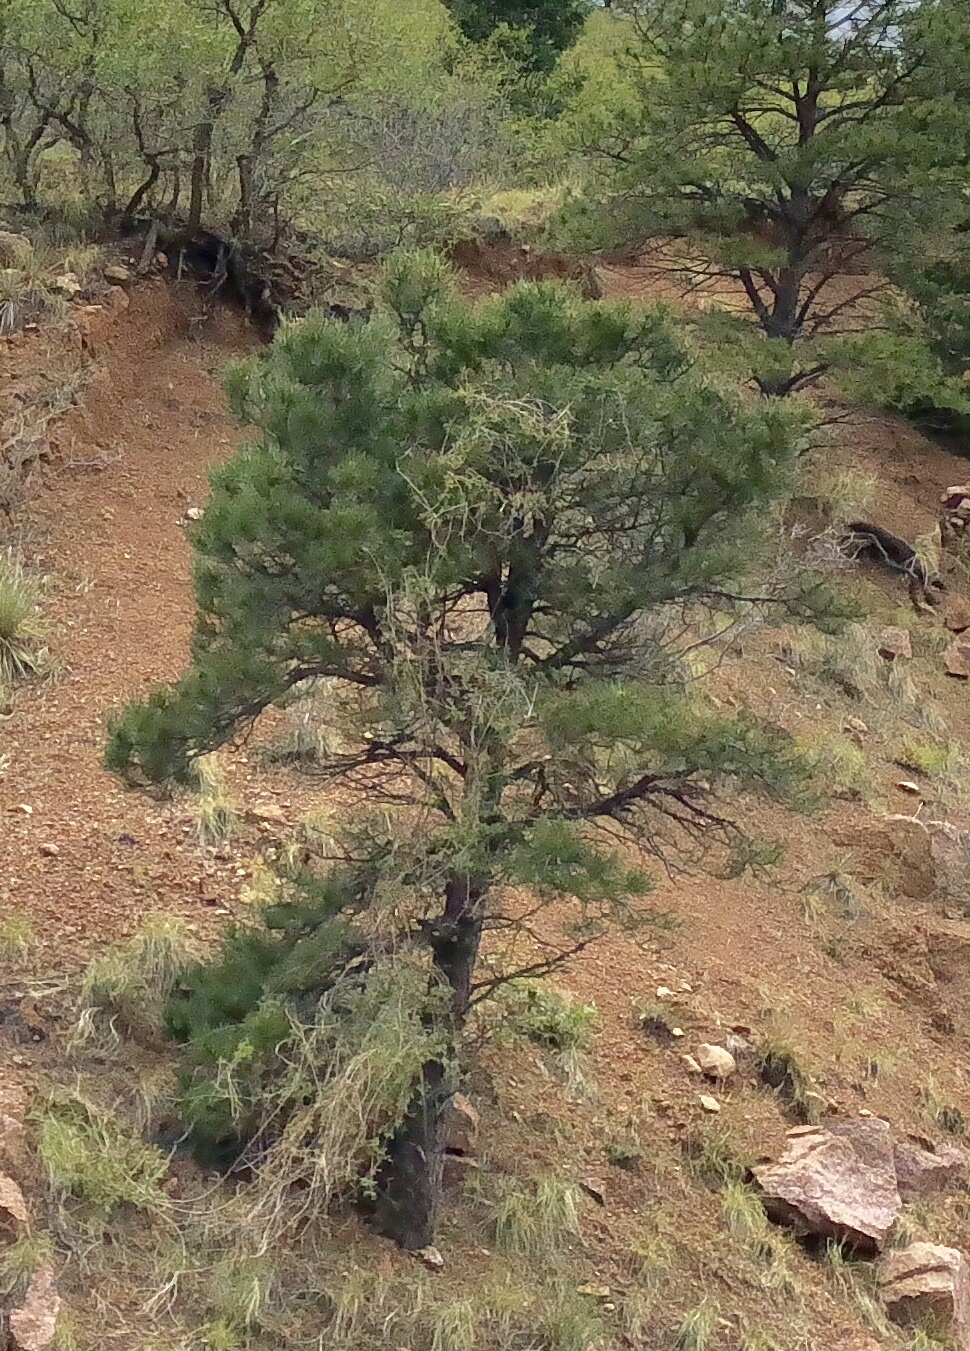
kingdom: Plantae
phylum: Tracheophyta
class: Pinopsida
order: Pinales
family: Pinaceae
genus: Pinus
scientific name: Pinus ponderosa
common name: Western yellow-pine
